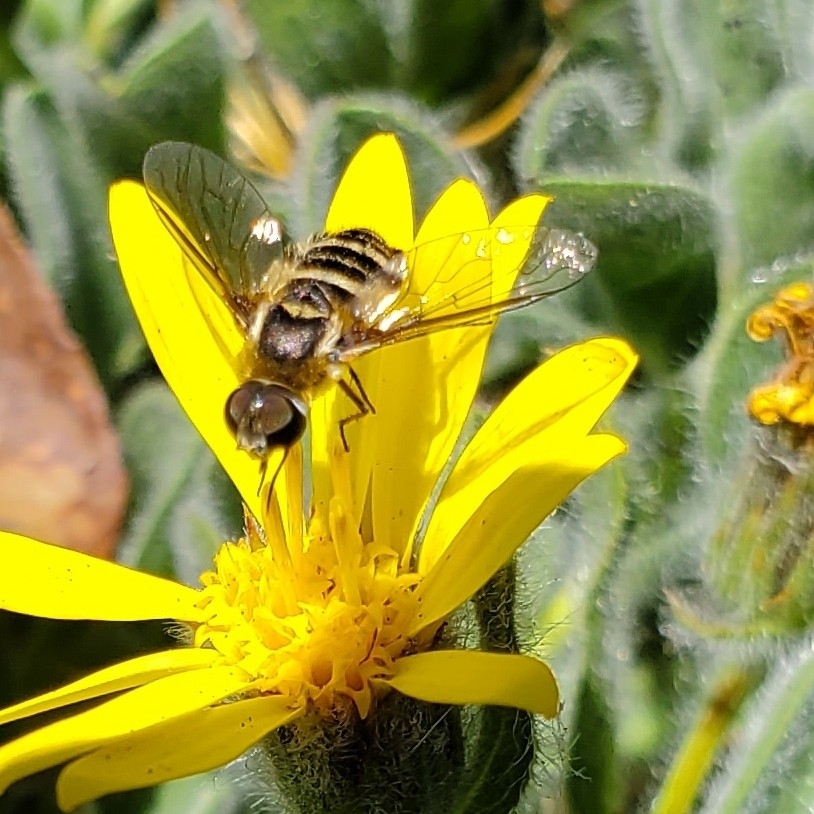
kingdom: Animalia
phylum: Arthropoda
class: Insecta
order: Diptera
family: Bombyliidae
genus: Villa
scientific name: Villa lateralis
